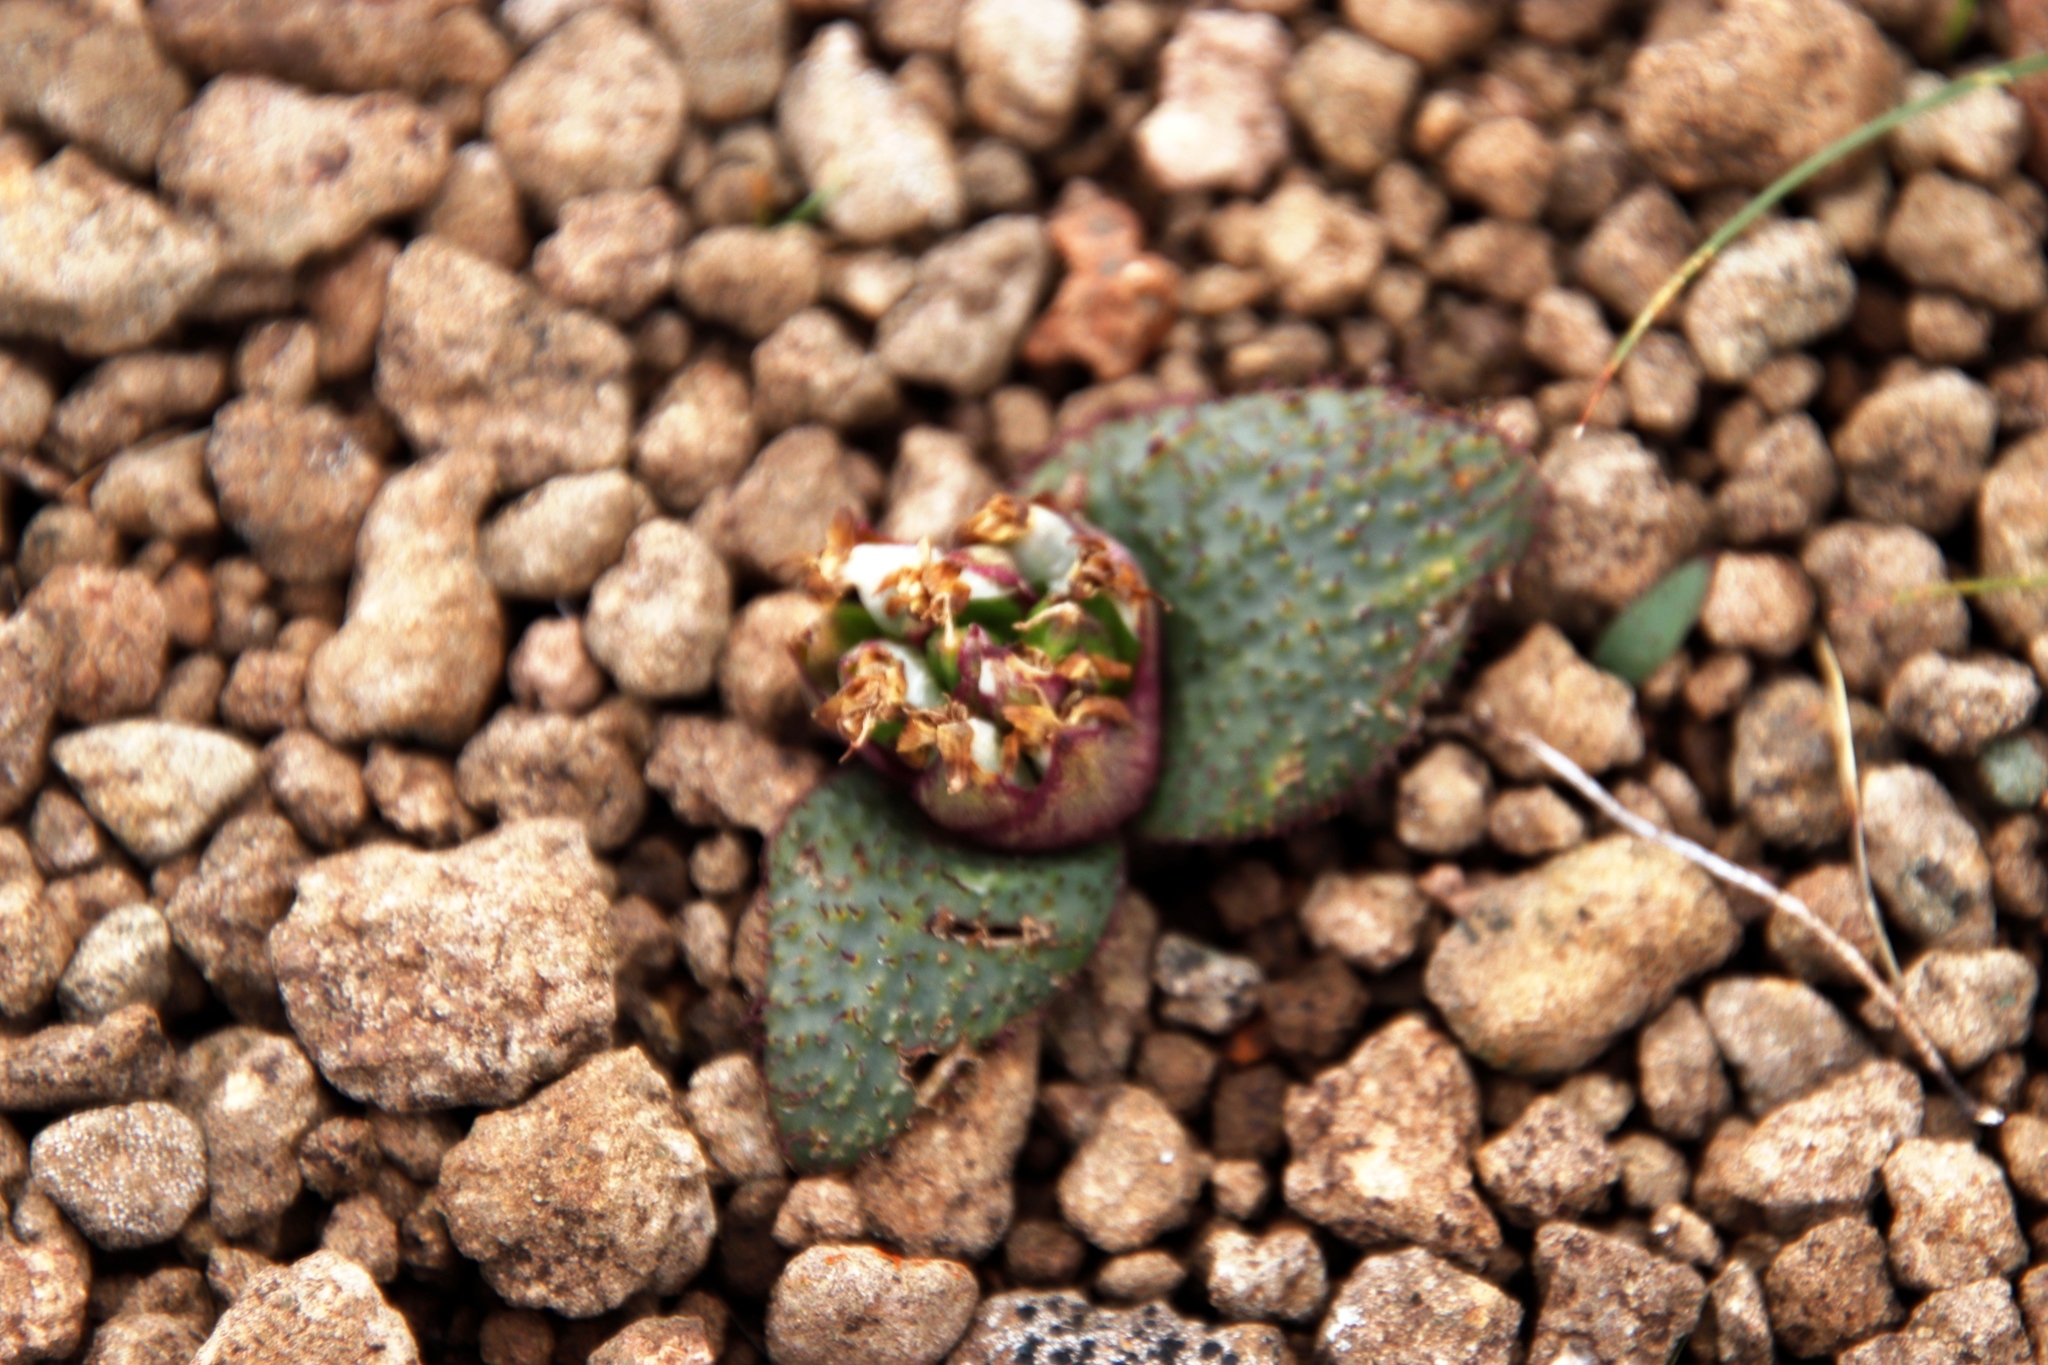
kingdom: Plantae
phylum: Tracheophyta
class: Liliopsida
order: Asparagales
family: Asparagaceae
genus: Massonia
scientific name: Massonia wittebergensis
